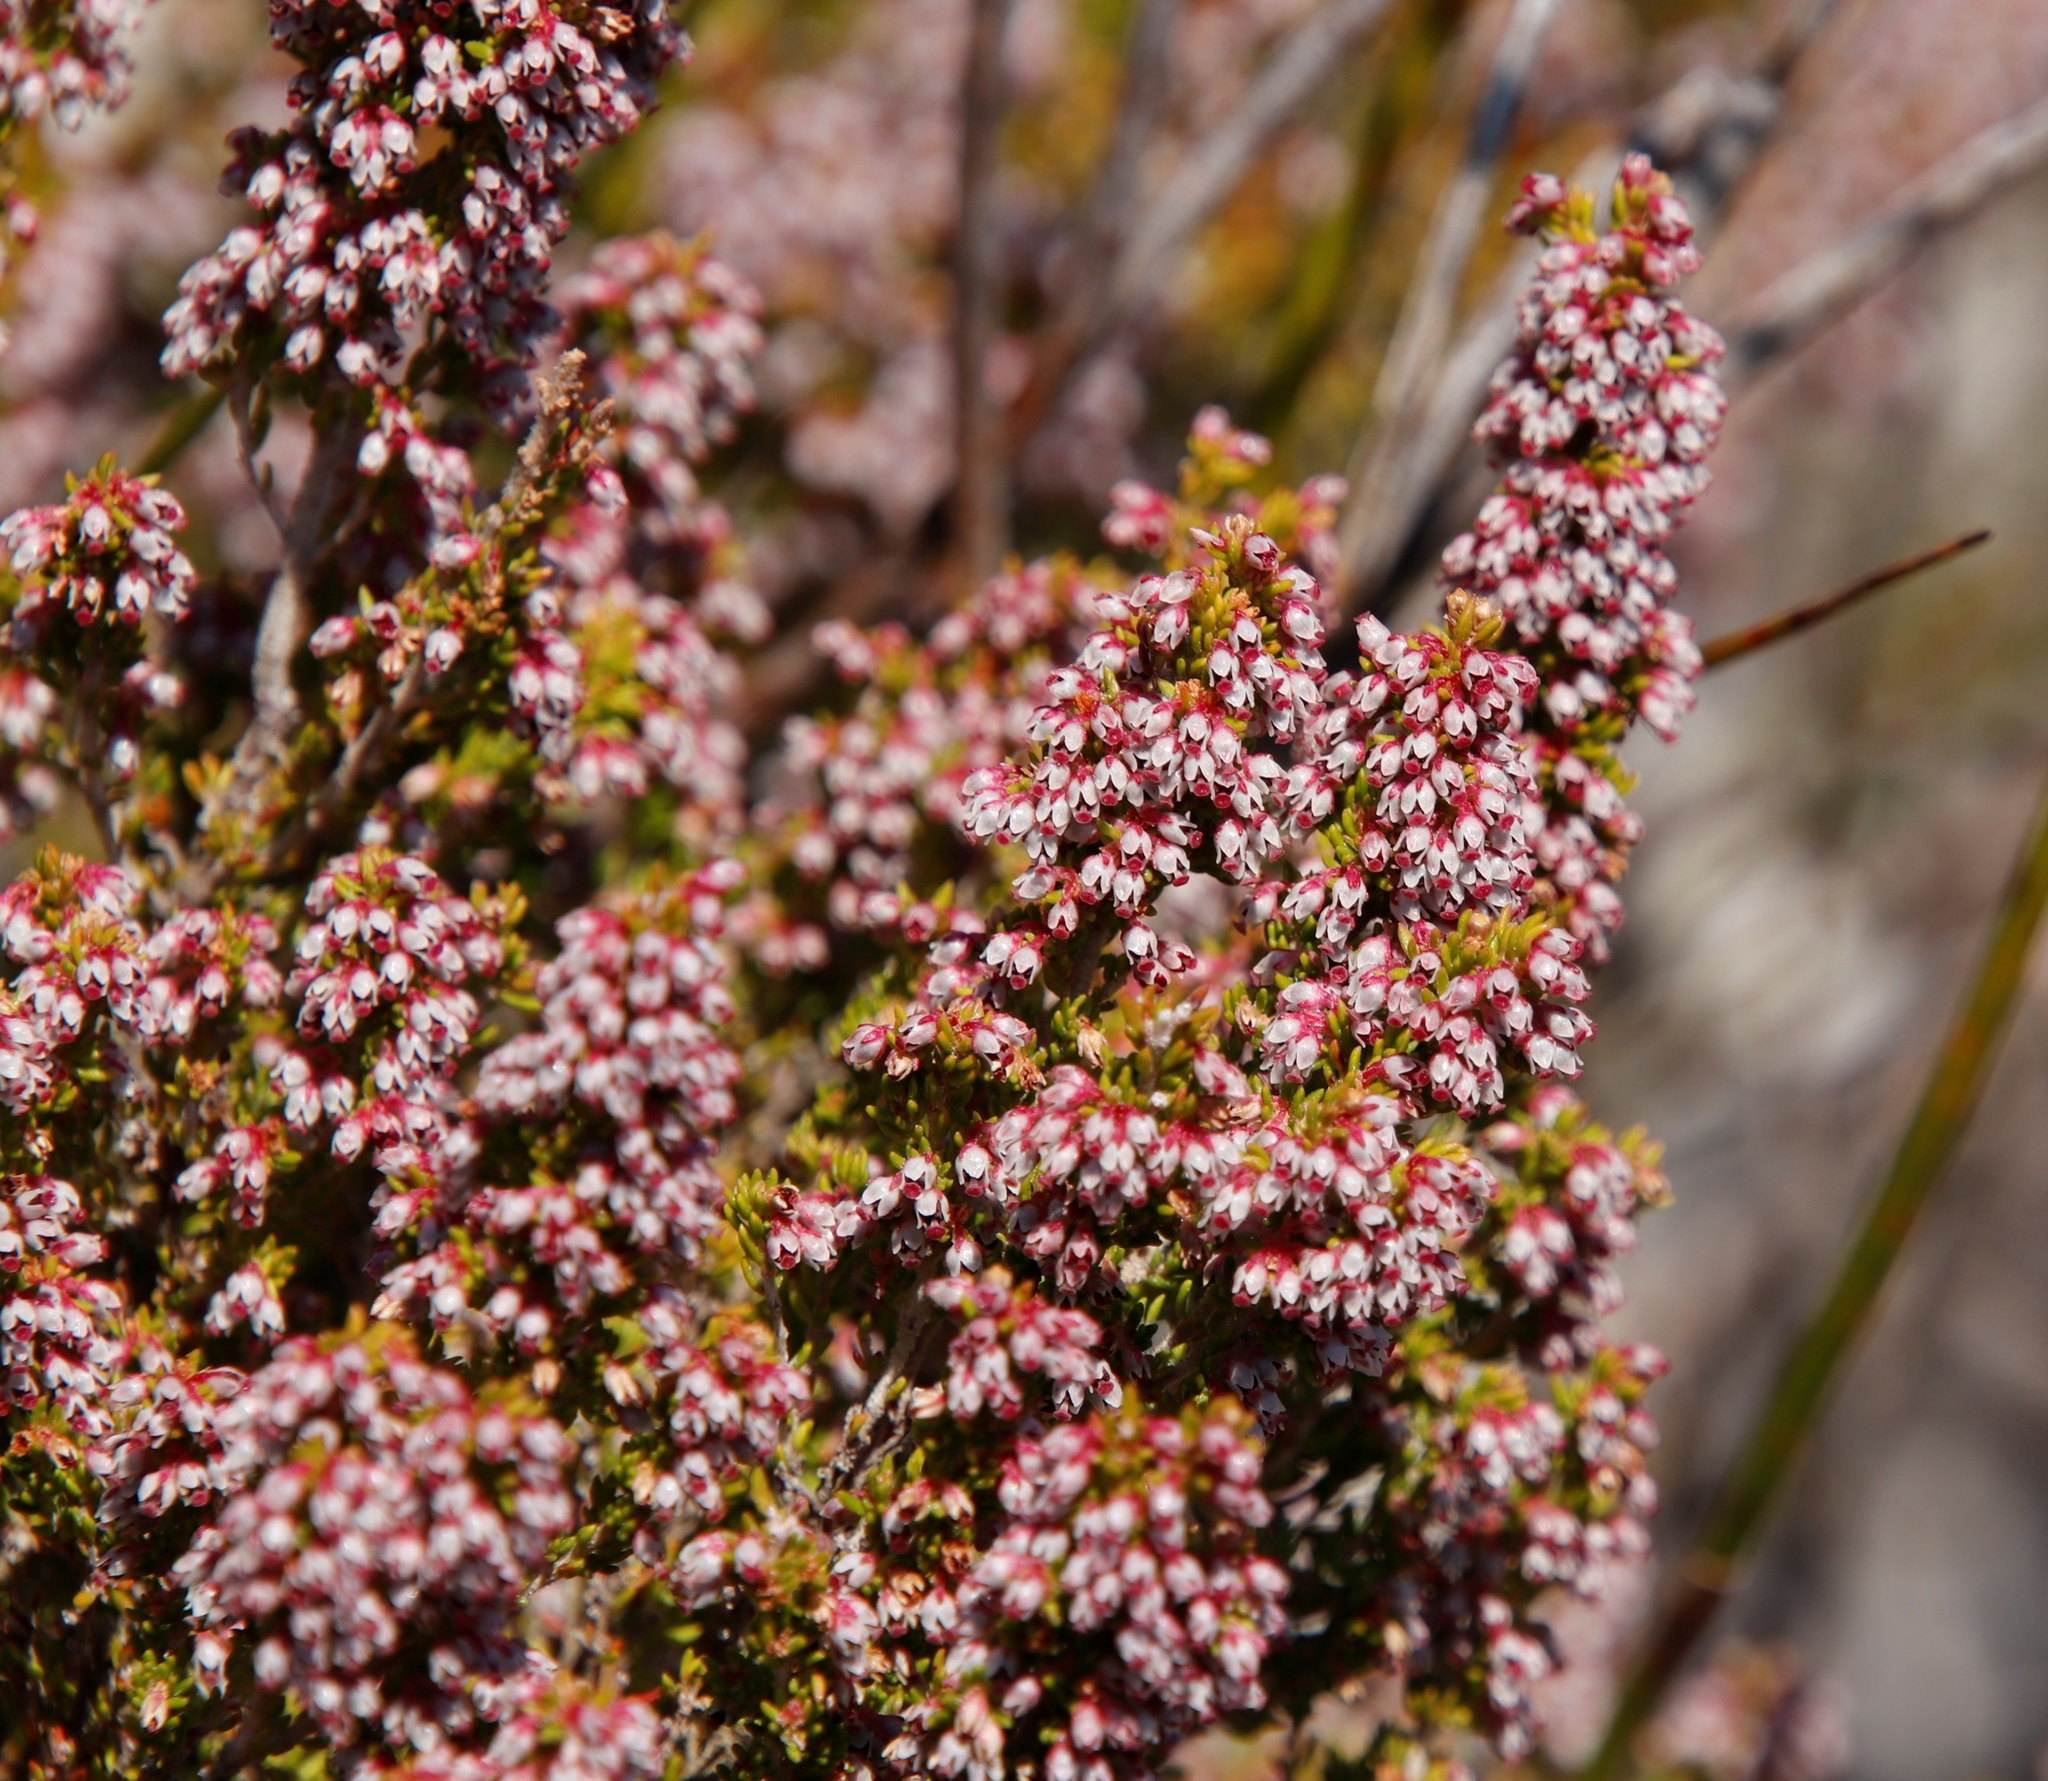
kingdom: Plantae
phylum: Tracheophyta
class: Magnoliopsida
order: Ericales
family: Ericaceae
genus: Erica
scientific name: Erica hispidula
